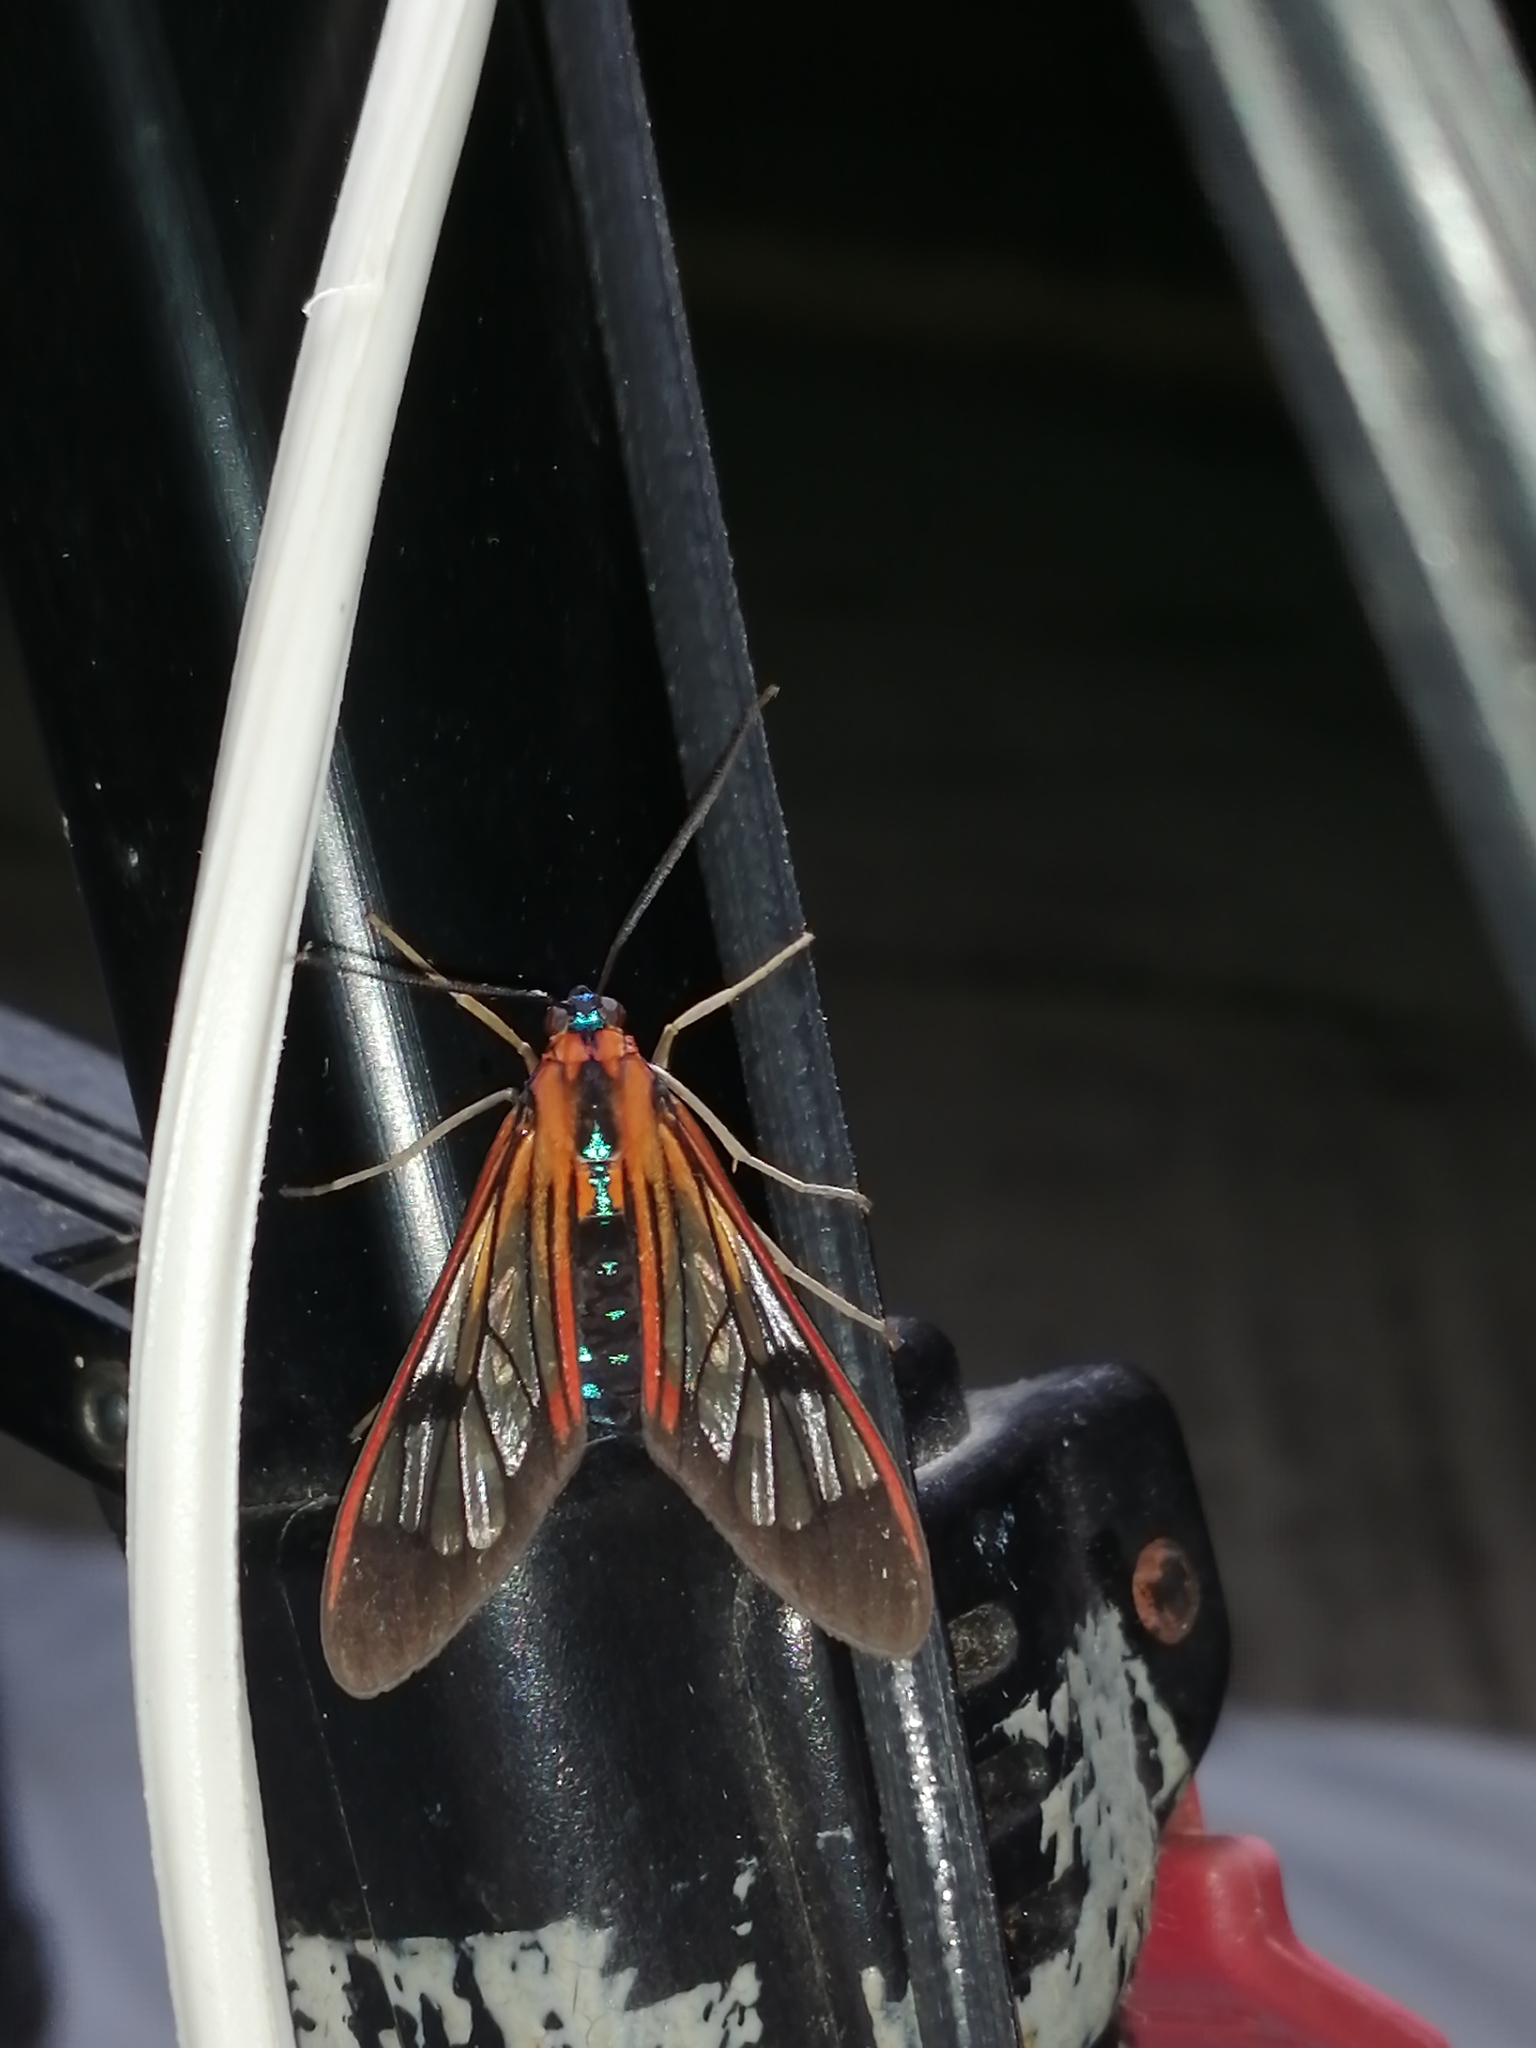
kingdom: Animalia
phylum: Arthropoda
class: Insecta
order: Lepidoptera
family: Erebidae
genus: Lepidoneiva
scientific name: Lepidoneiva caecum
